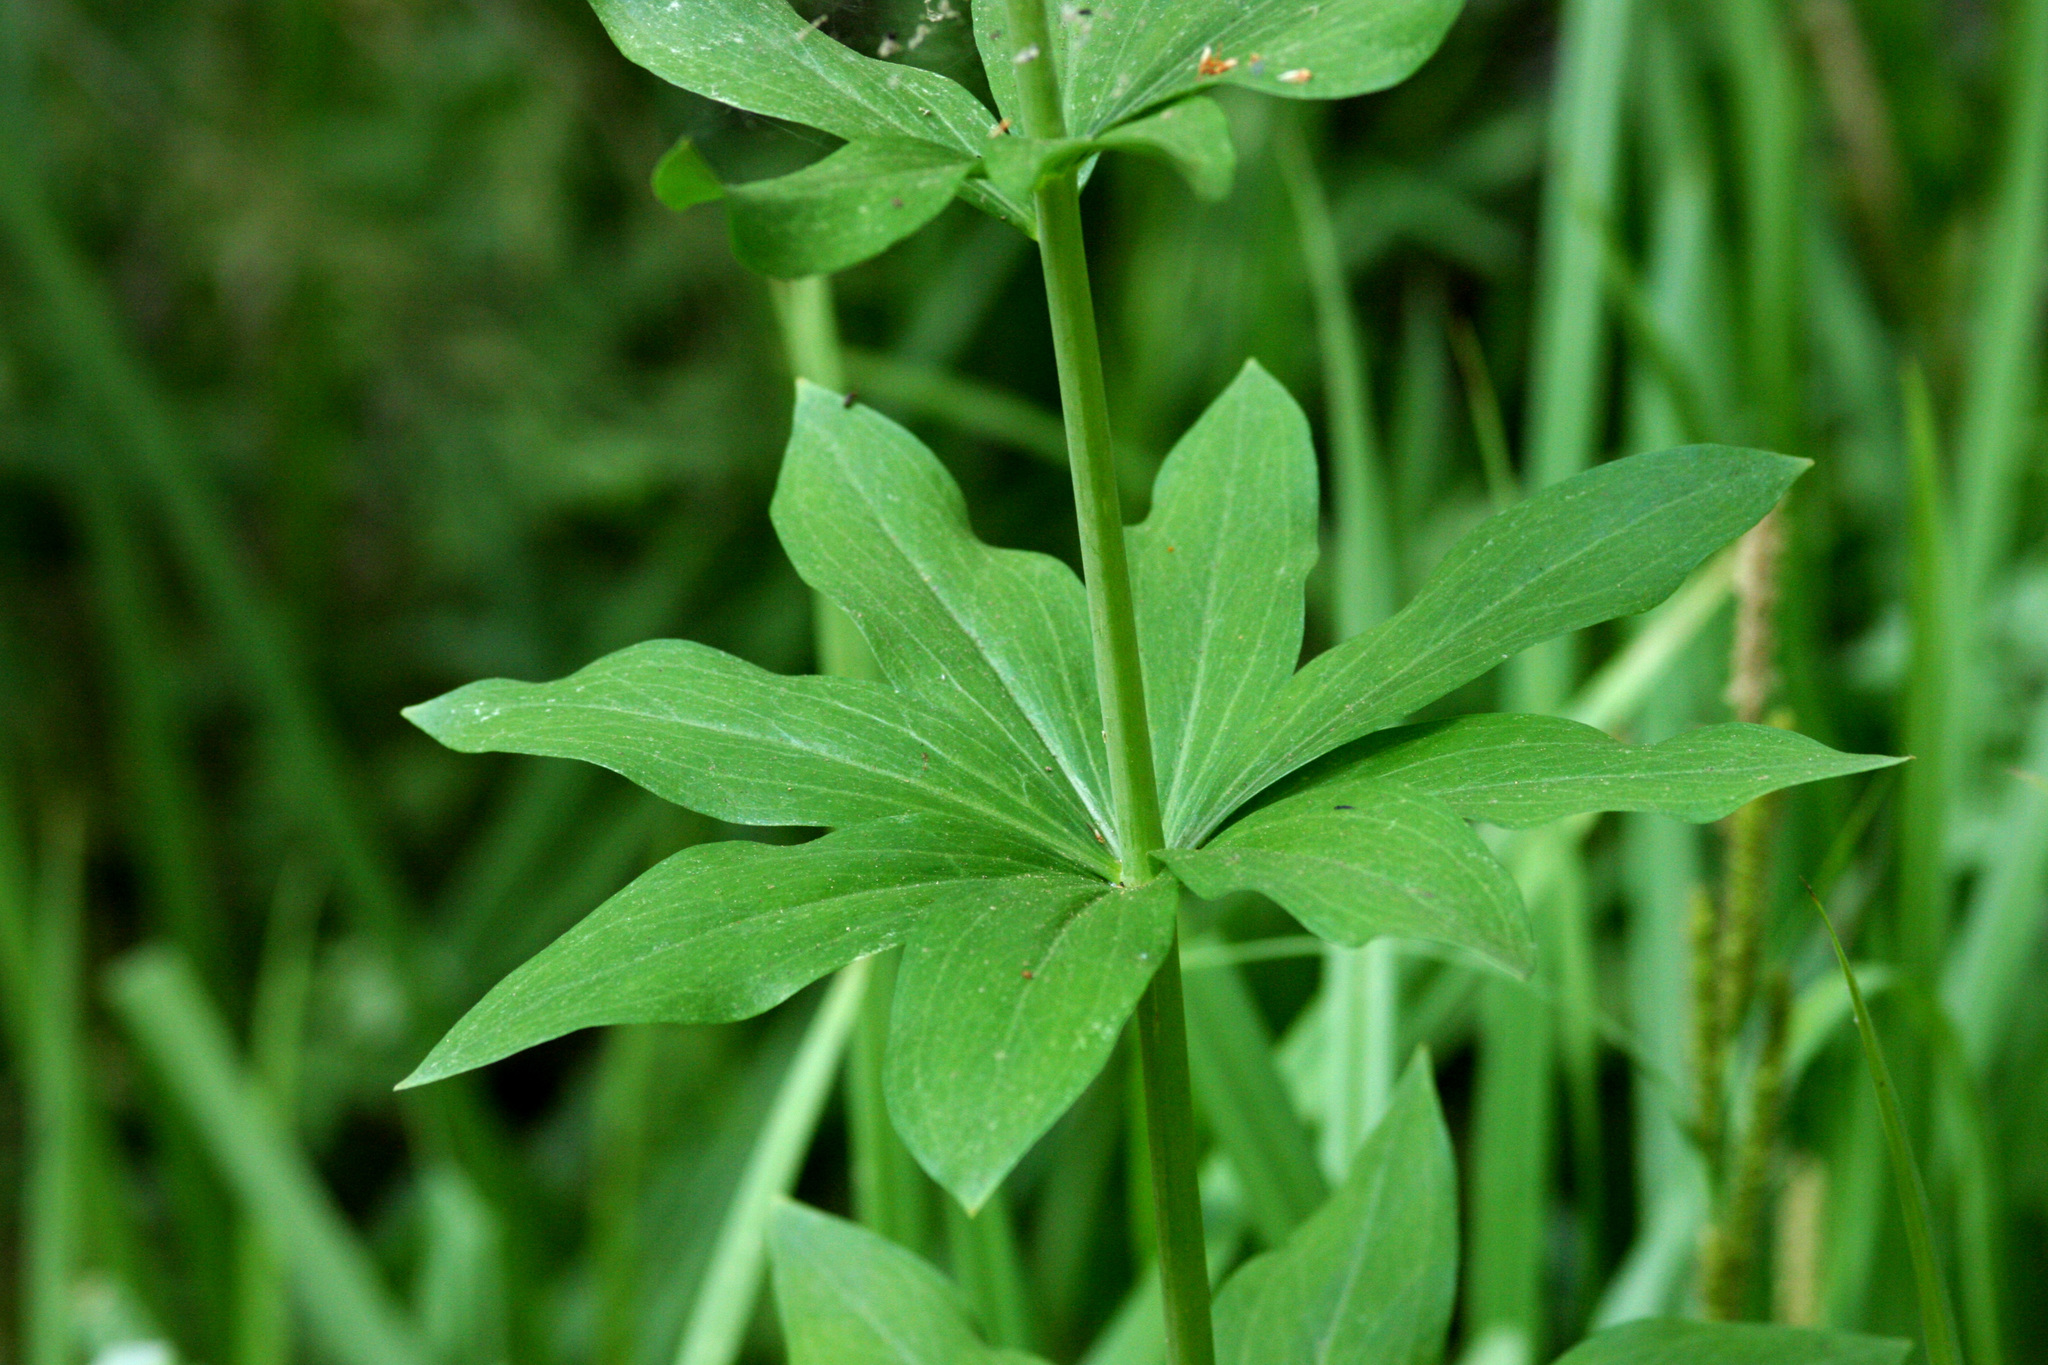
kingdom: Plantae
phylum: Tracheophyta
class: Liliopsida
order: Liliales
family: Liliaceae
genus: Lilium
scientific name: Lilium kelleyanum
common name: Kelley's lily
